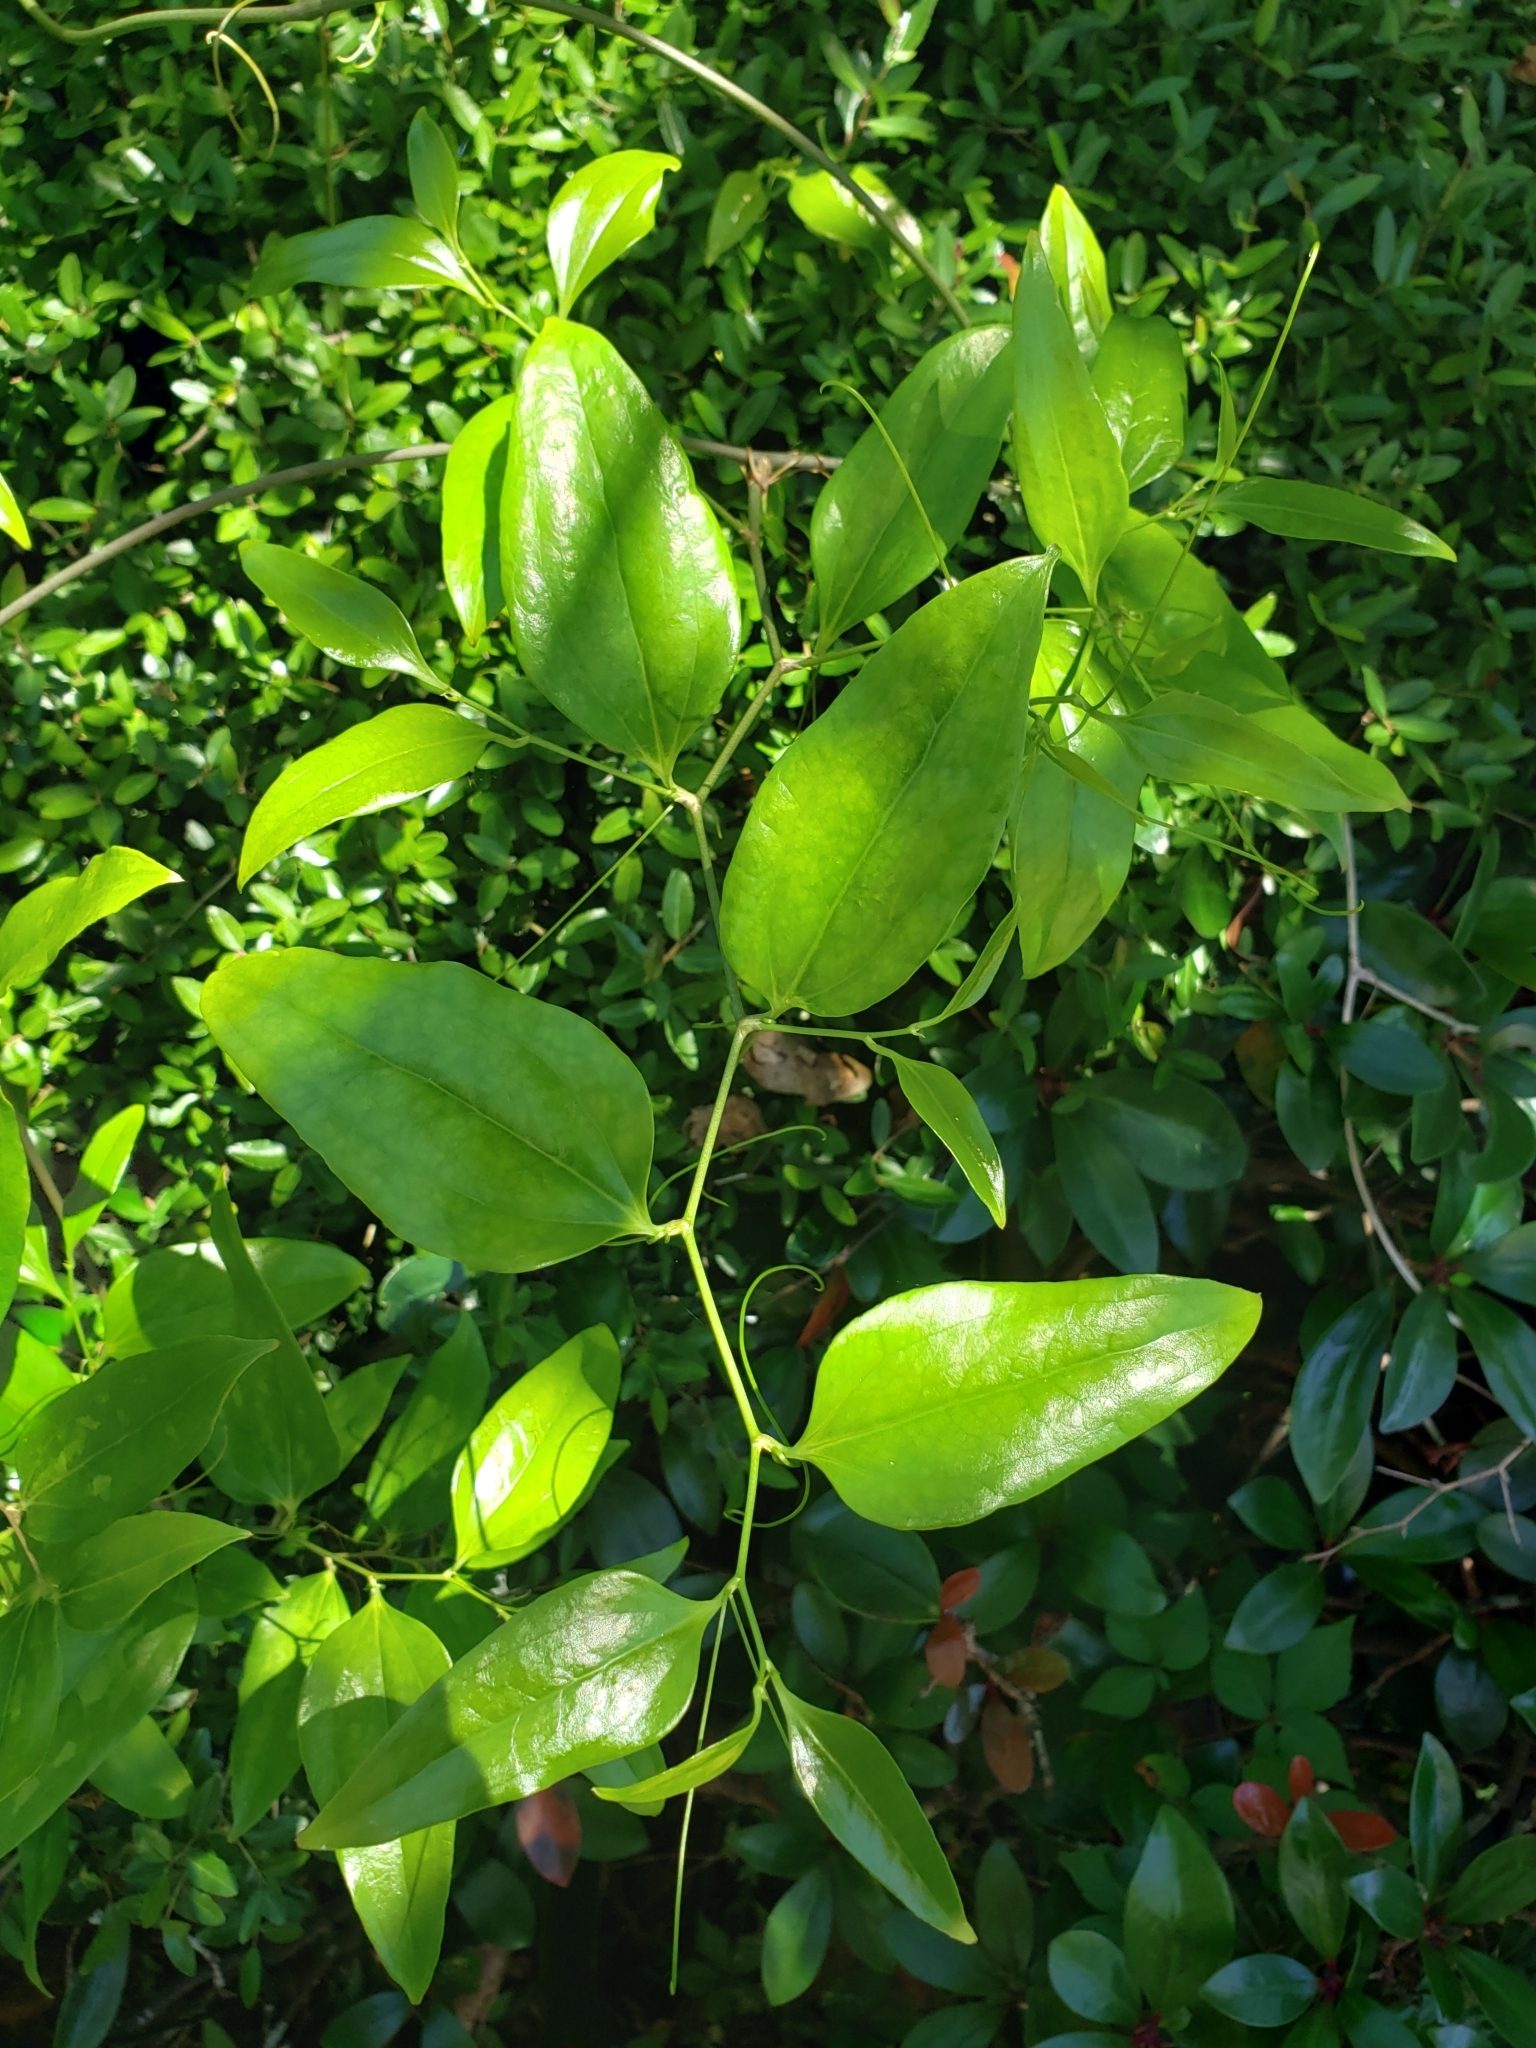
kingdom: Plantae
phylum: Tracheophyta
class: Liliopsida
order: Liliales
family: Smilacaceae
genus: Smilax
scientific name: Smilax maritima
